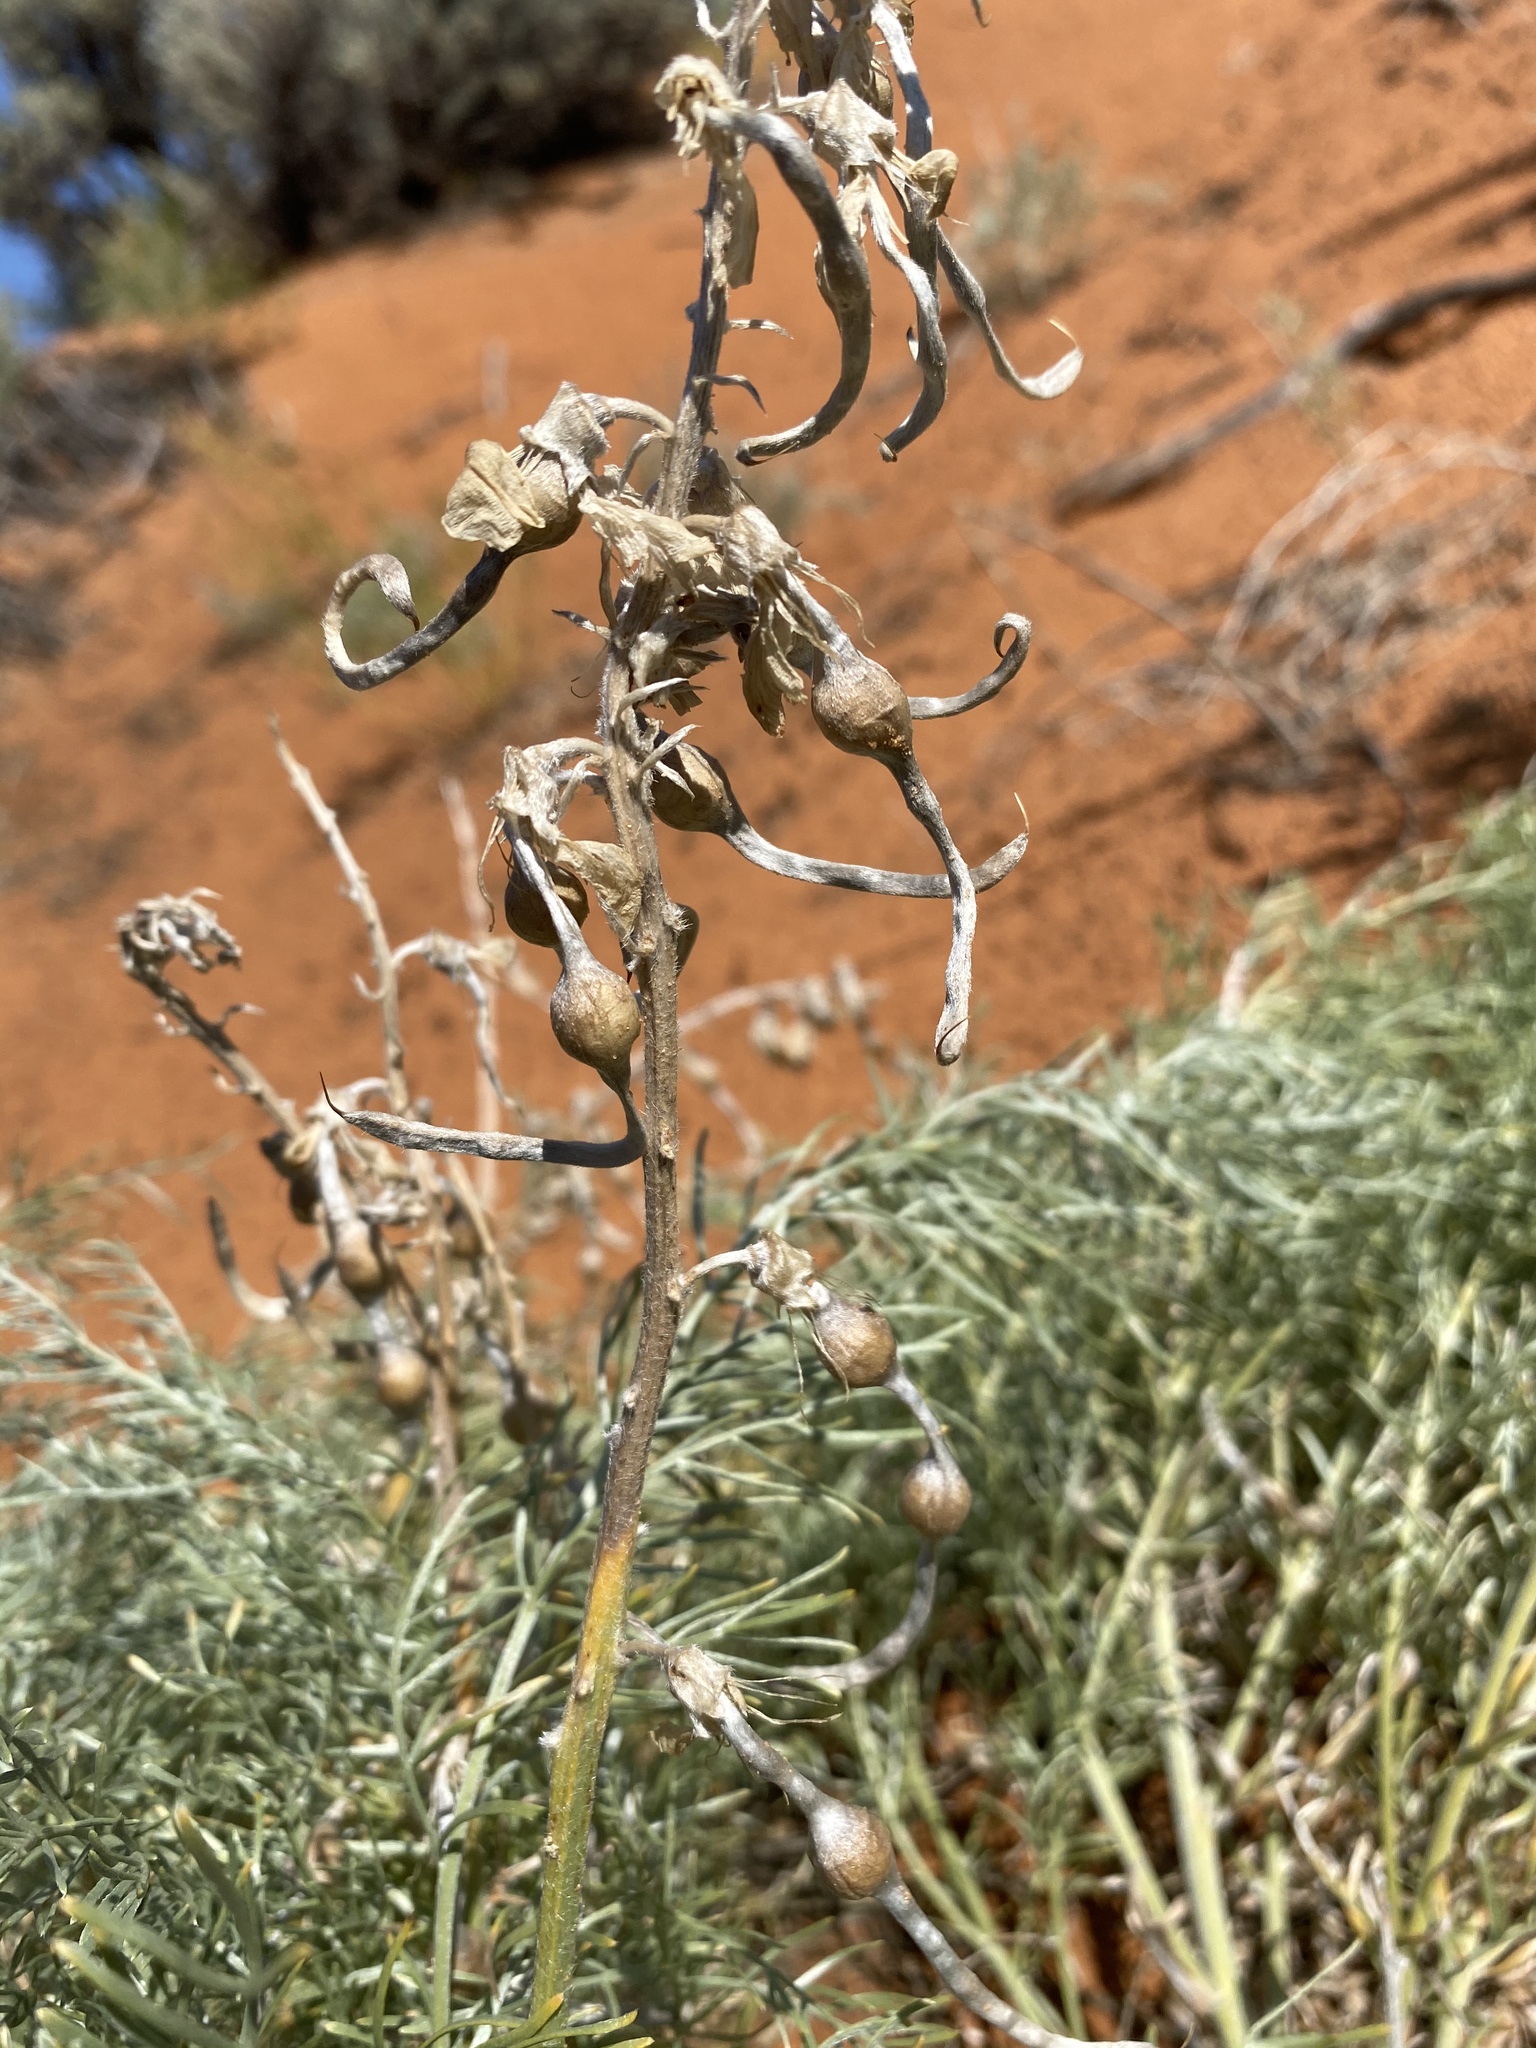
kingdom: Plantae
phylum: Tracheophyta
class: Magnoliopsida
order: Fabales
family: Fabaceae
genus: Sophora
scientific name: Sophora stenophylla
